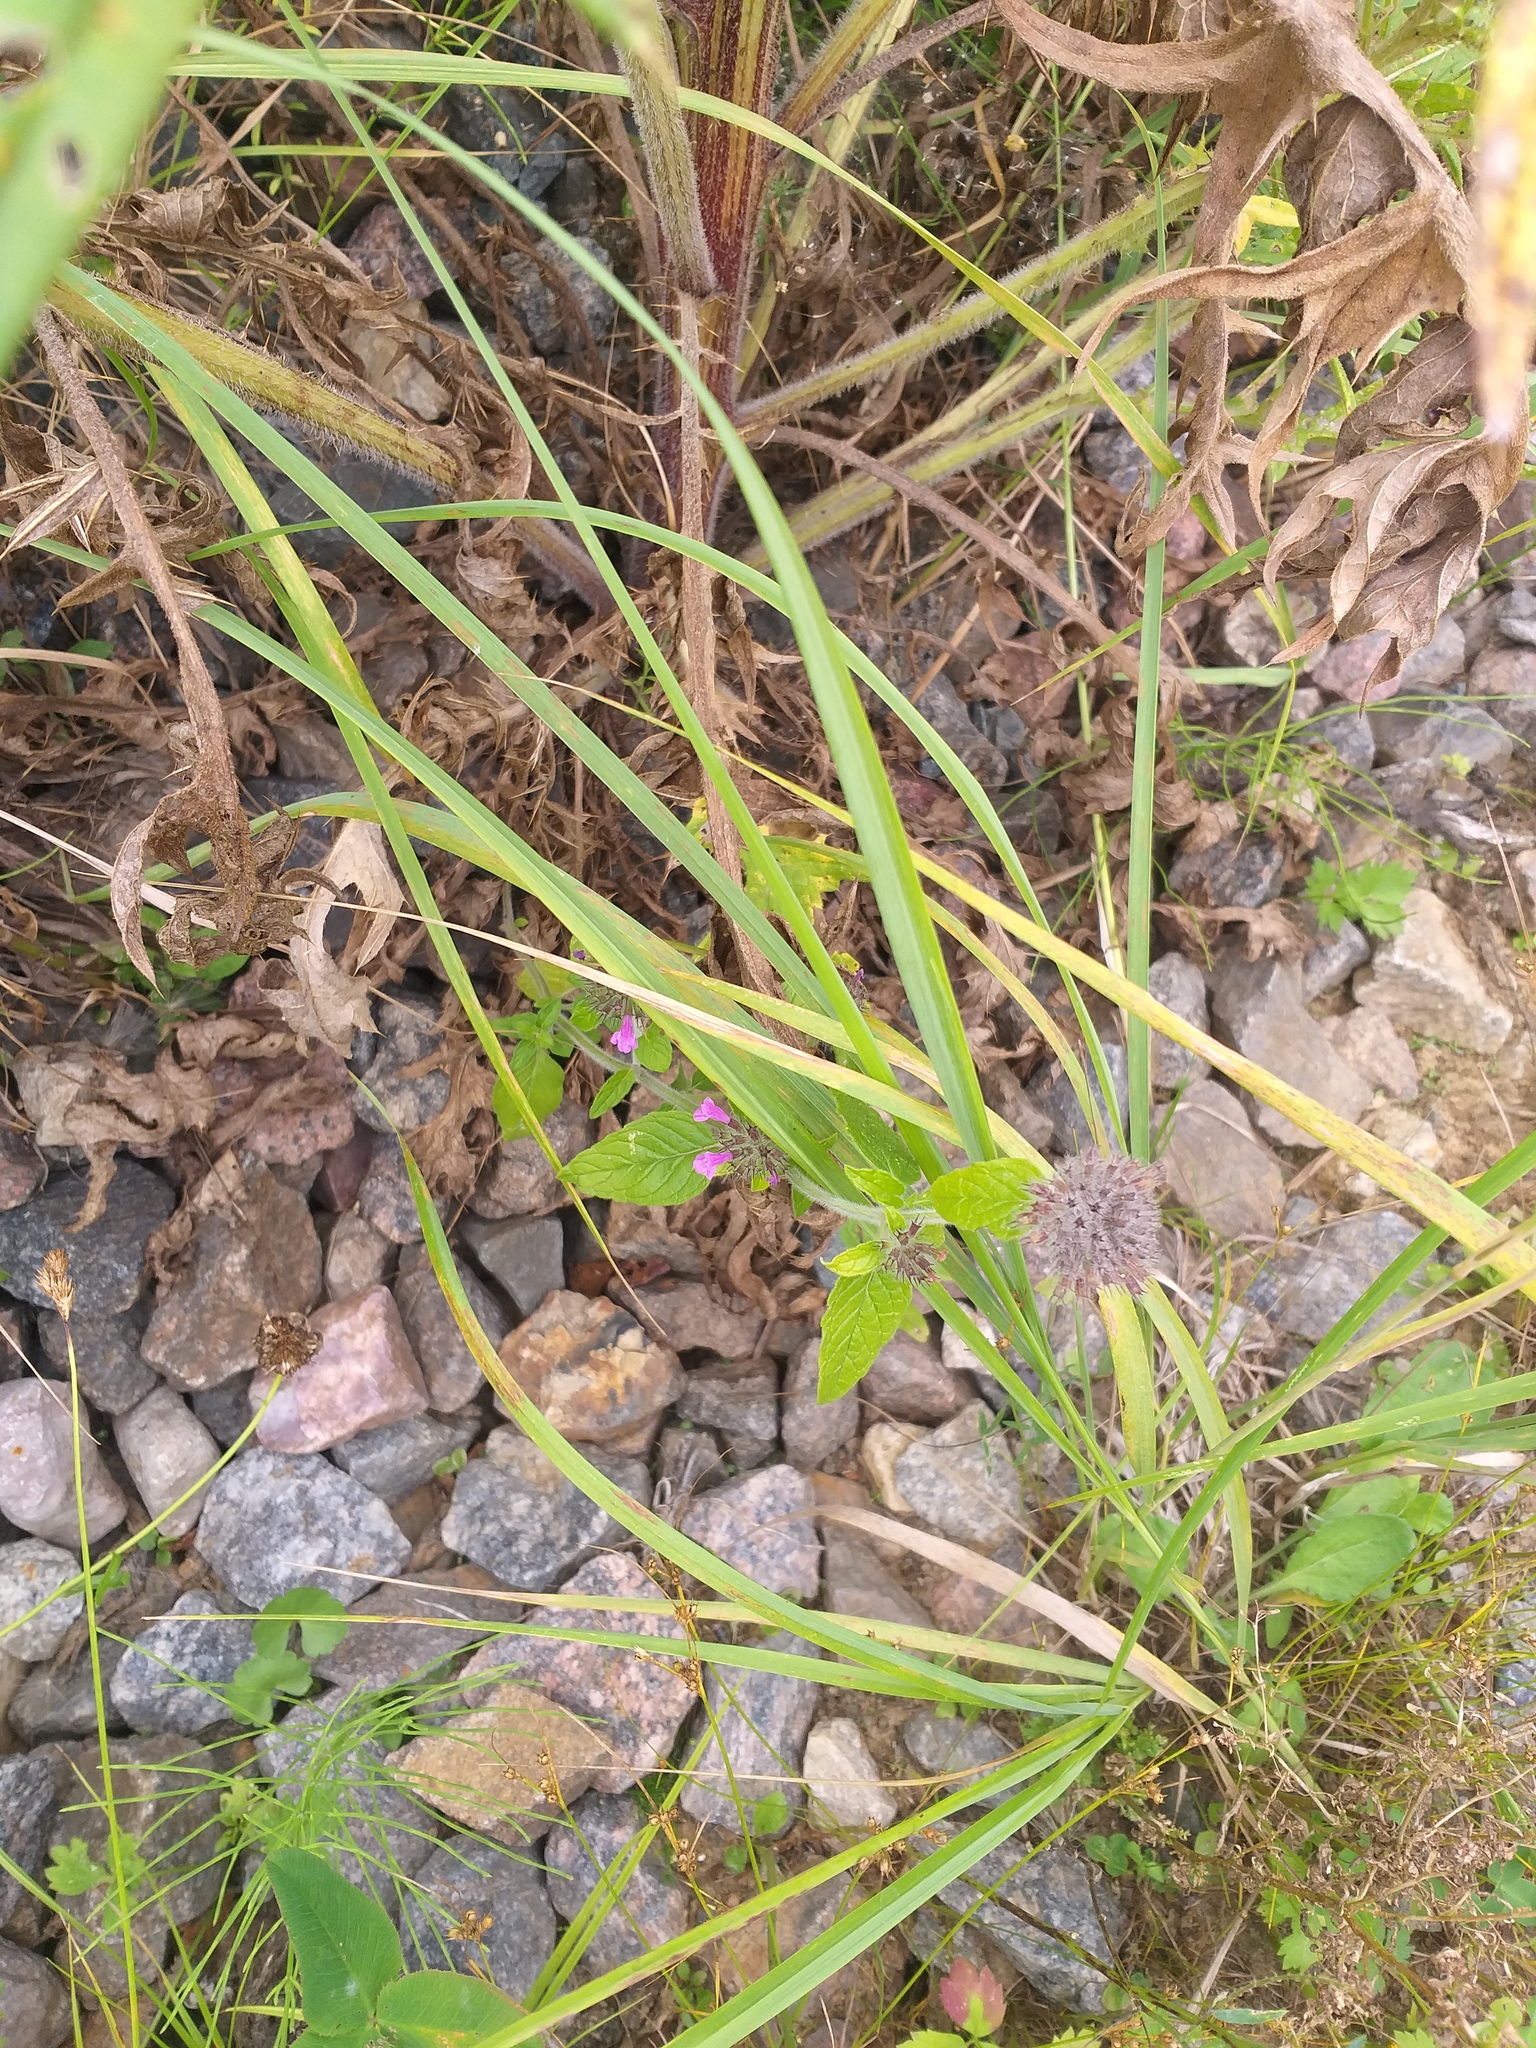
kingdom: Plantae
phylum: Tracheophyta
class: Magnoliopsida
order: Lamiales
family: Lamiaceae
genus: Clinopodium
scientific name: Clinopodium vulgare
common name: Wild basil
